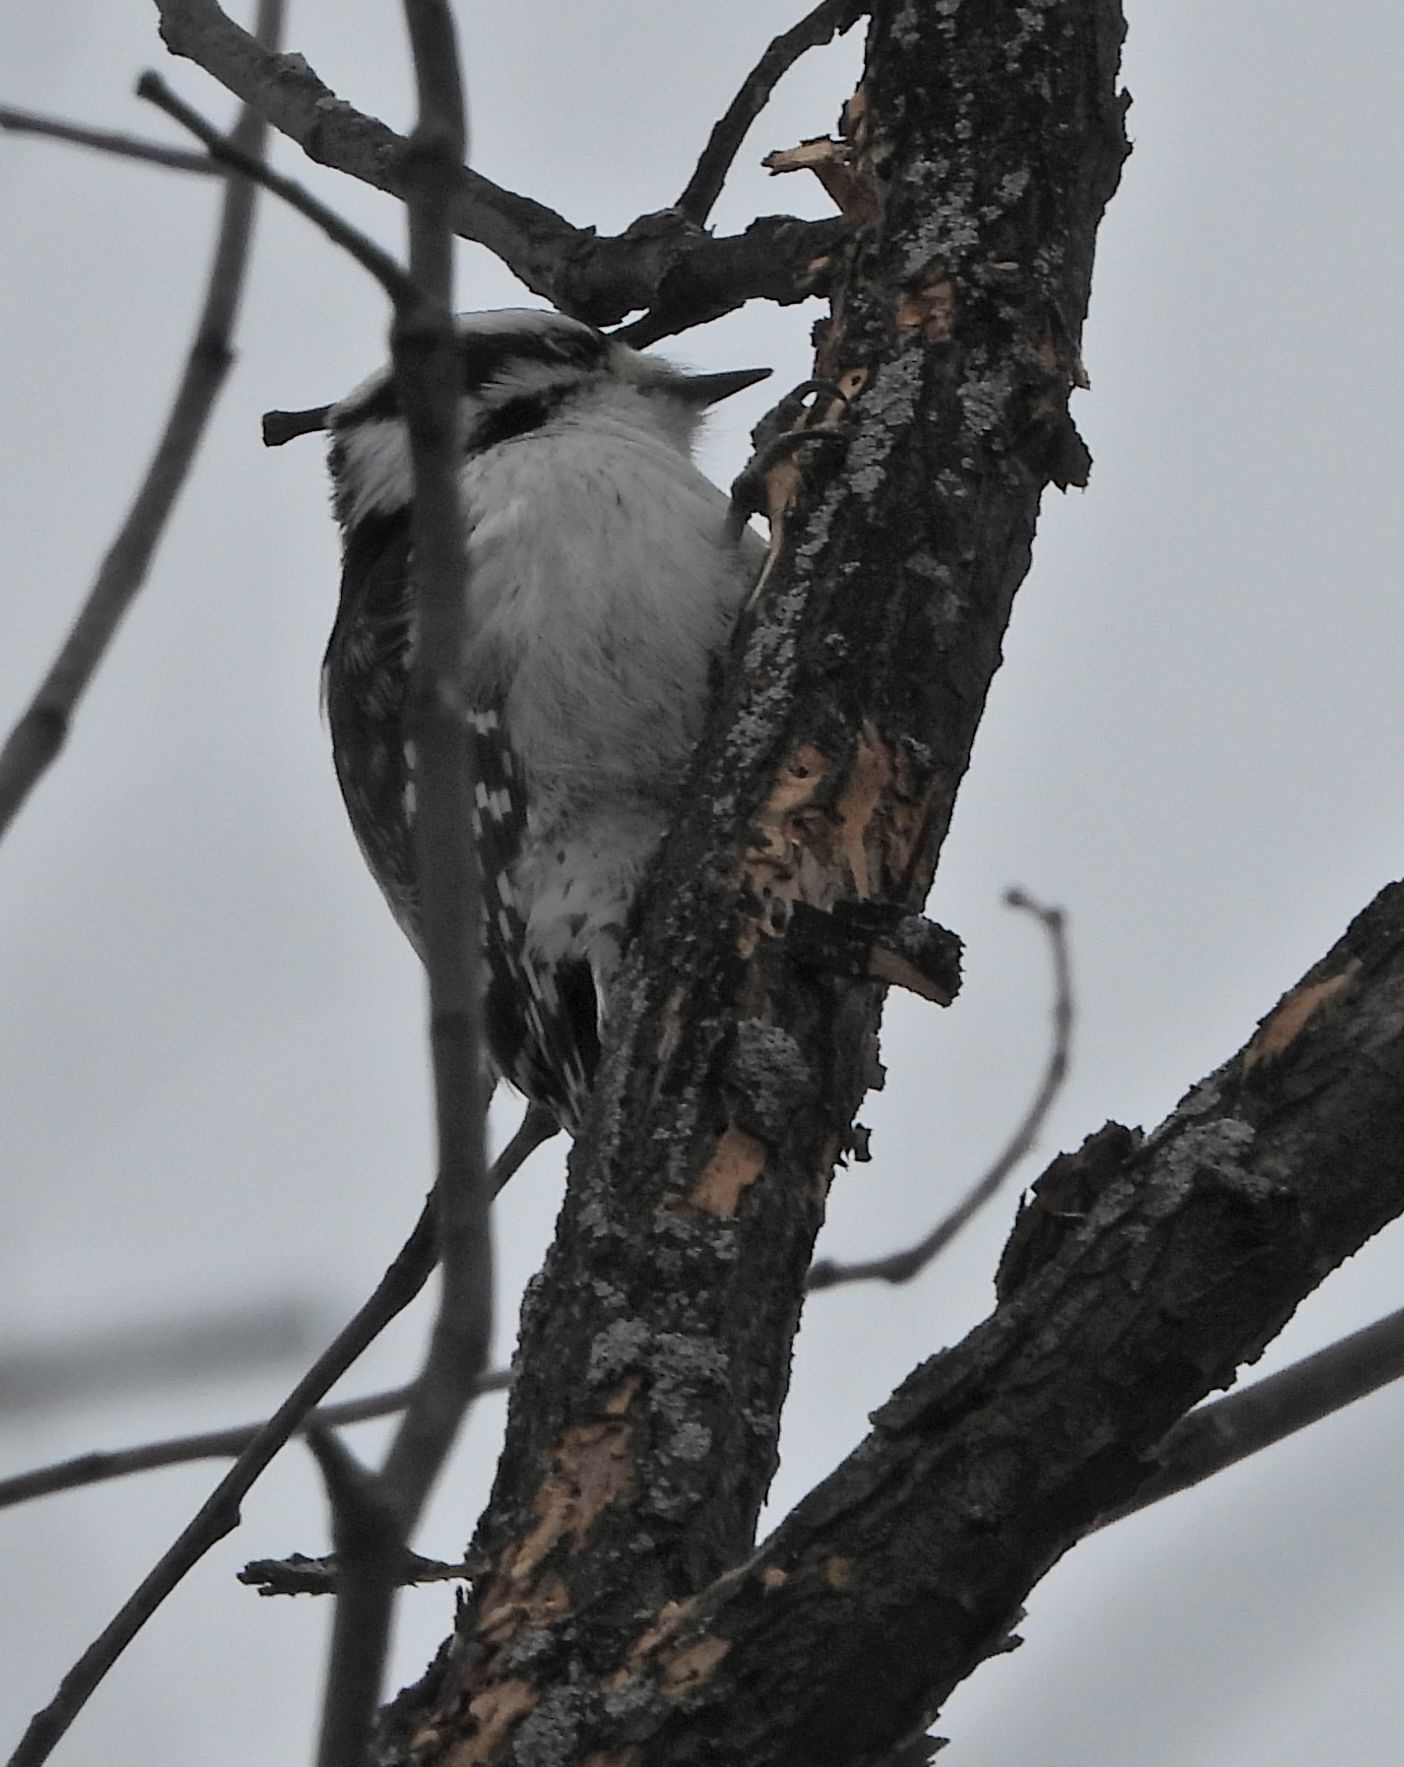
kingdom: Animalia
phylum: Chordata
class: Aves
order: Piciformes
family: Picidae
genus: Dryobates
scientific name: Dryobates pubescens
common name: Downy woodpecker
